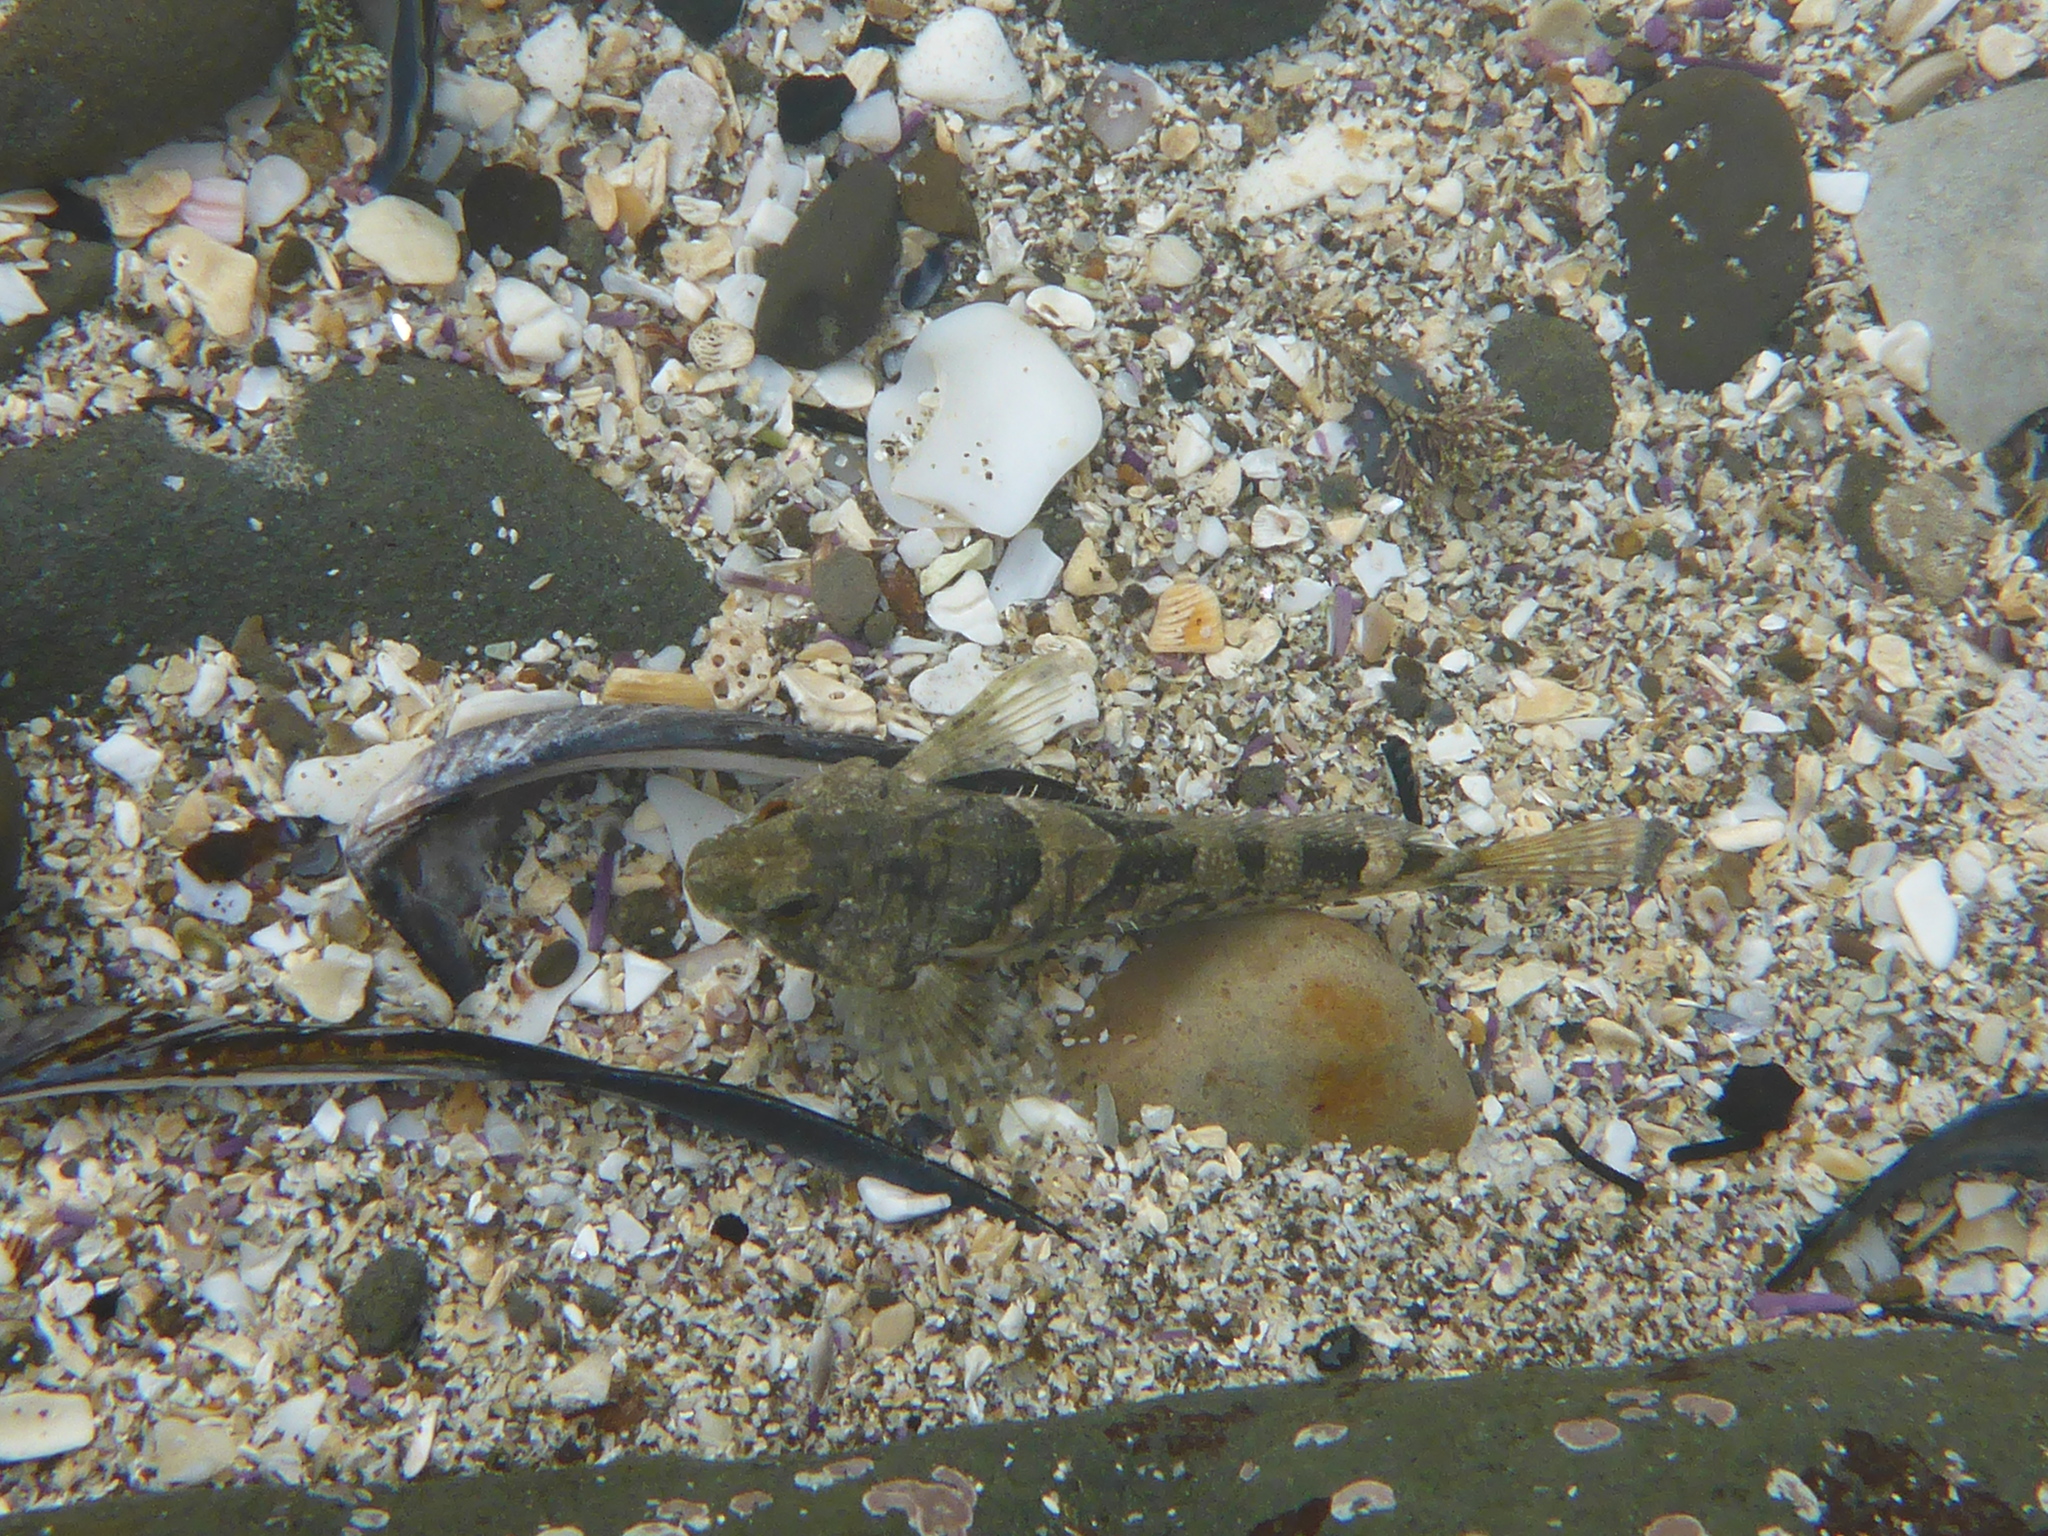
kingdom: Animalia
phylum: Chordata
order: Scorpaeniformes
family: Cottidae
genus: Oligocottus
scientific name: Oligocottus maculosus
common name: Tidepool sculpin
